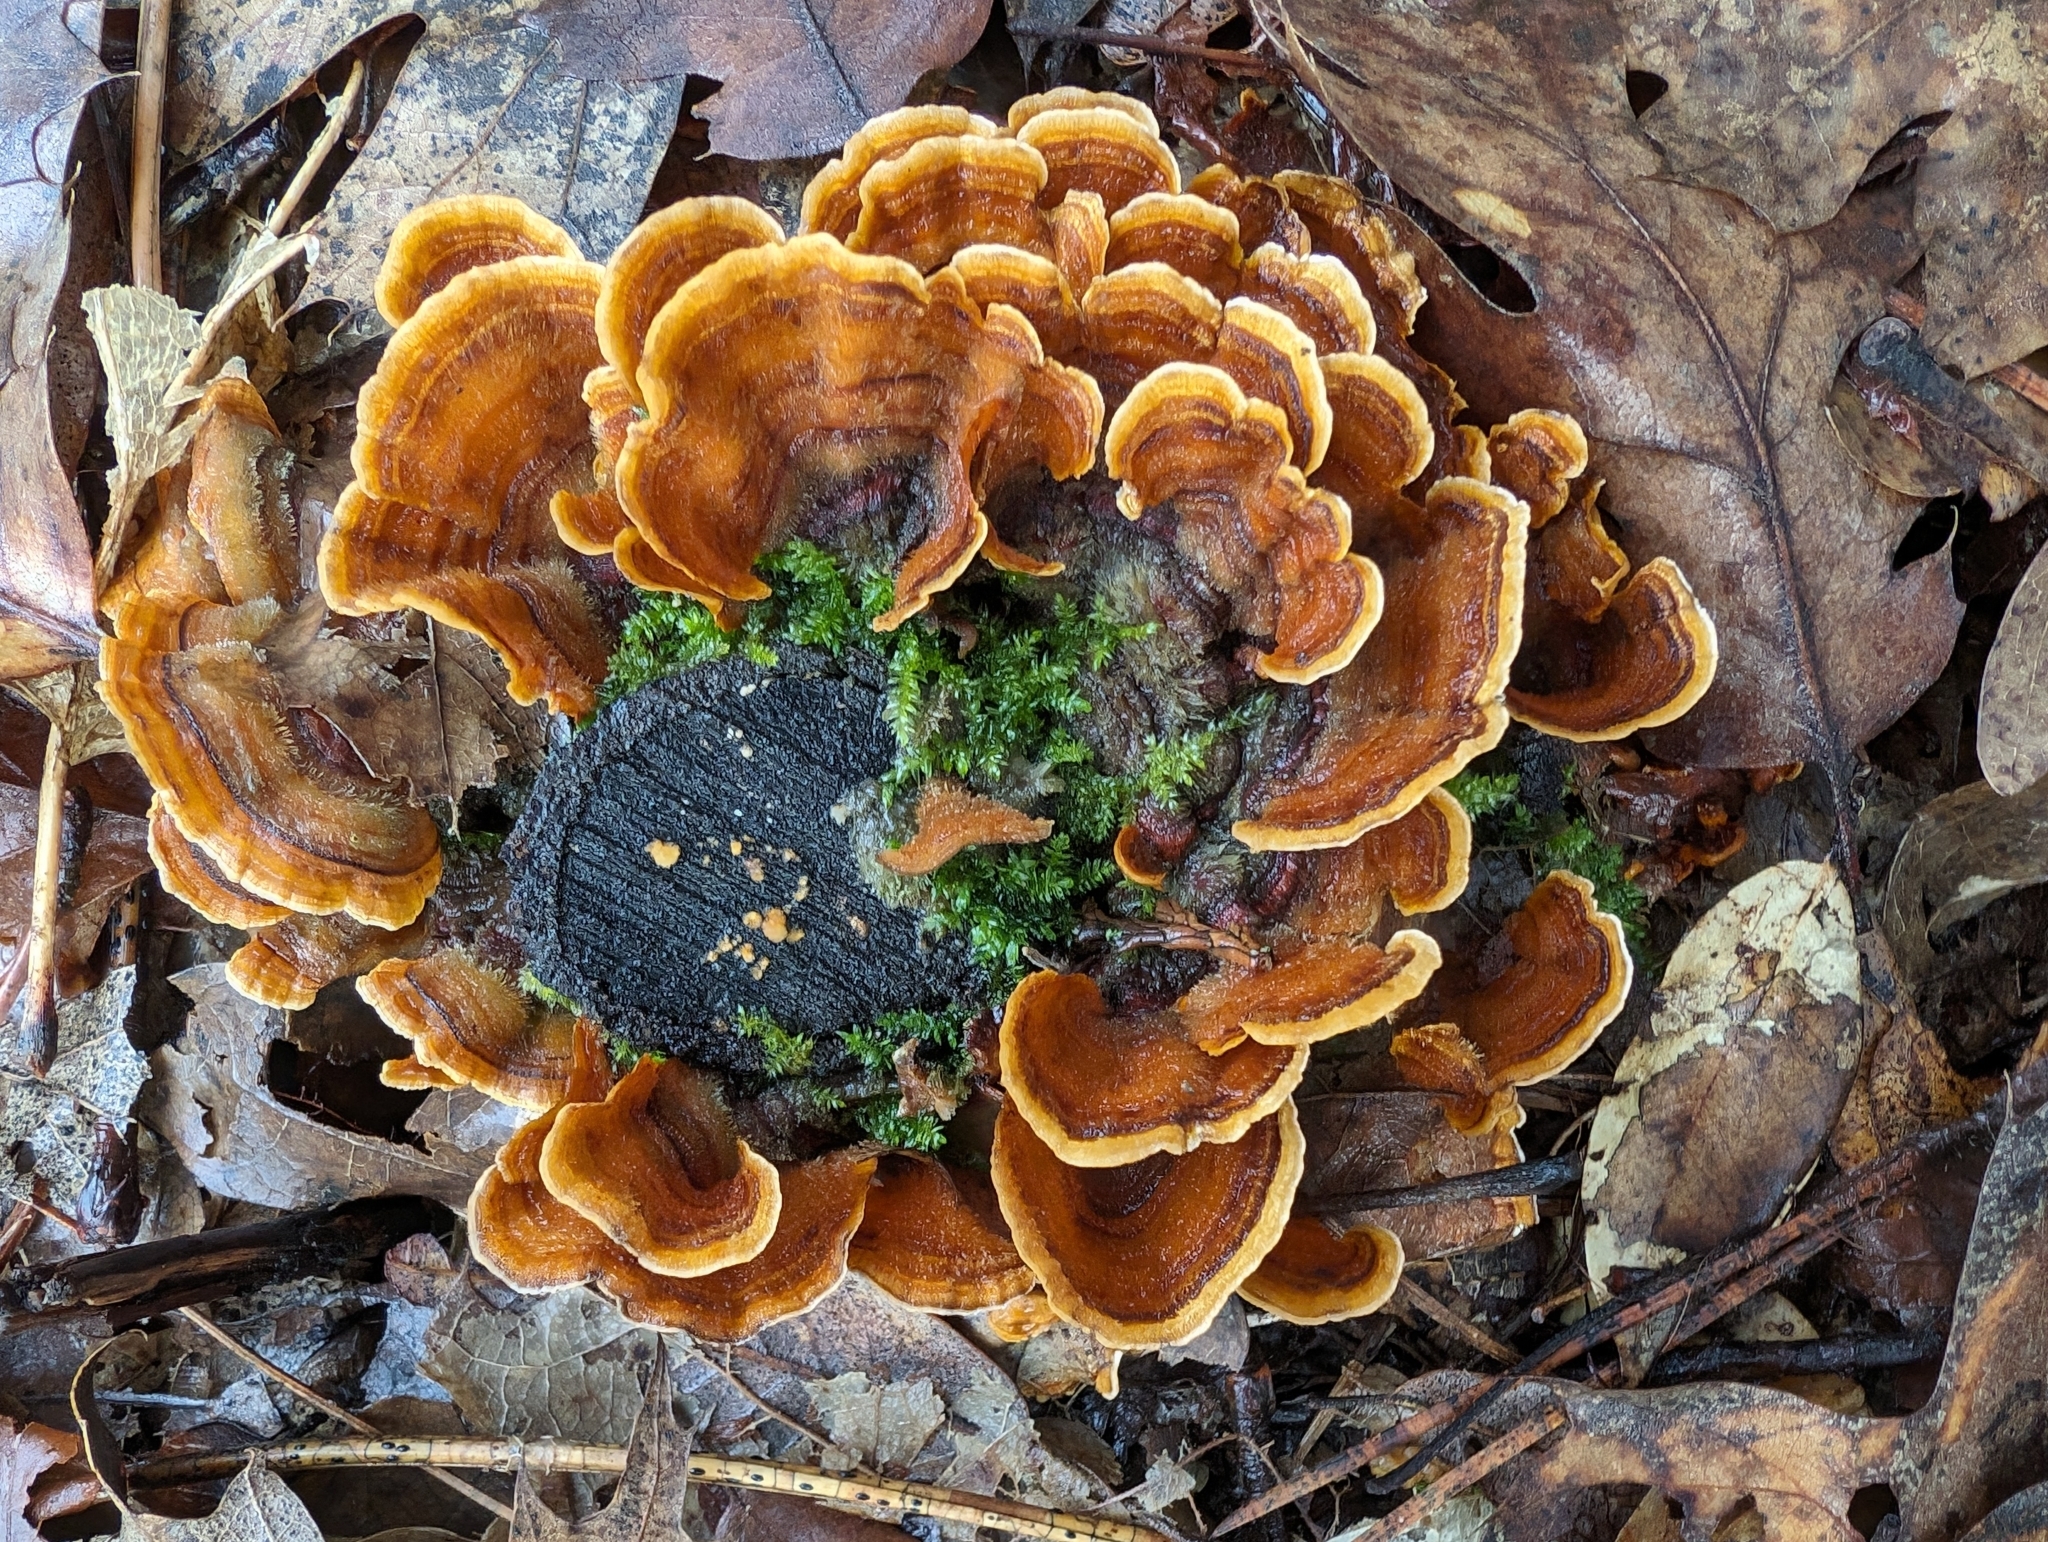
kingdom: Fungi
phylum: Basidiomycota
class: Agaricomycetes
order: Russulales
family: Stereaceae
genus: Stereum
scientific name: Stereum hirsutum
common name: Hairy curtain crust
